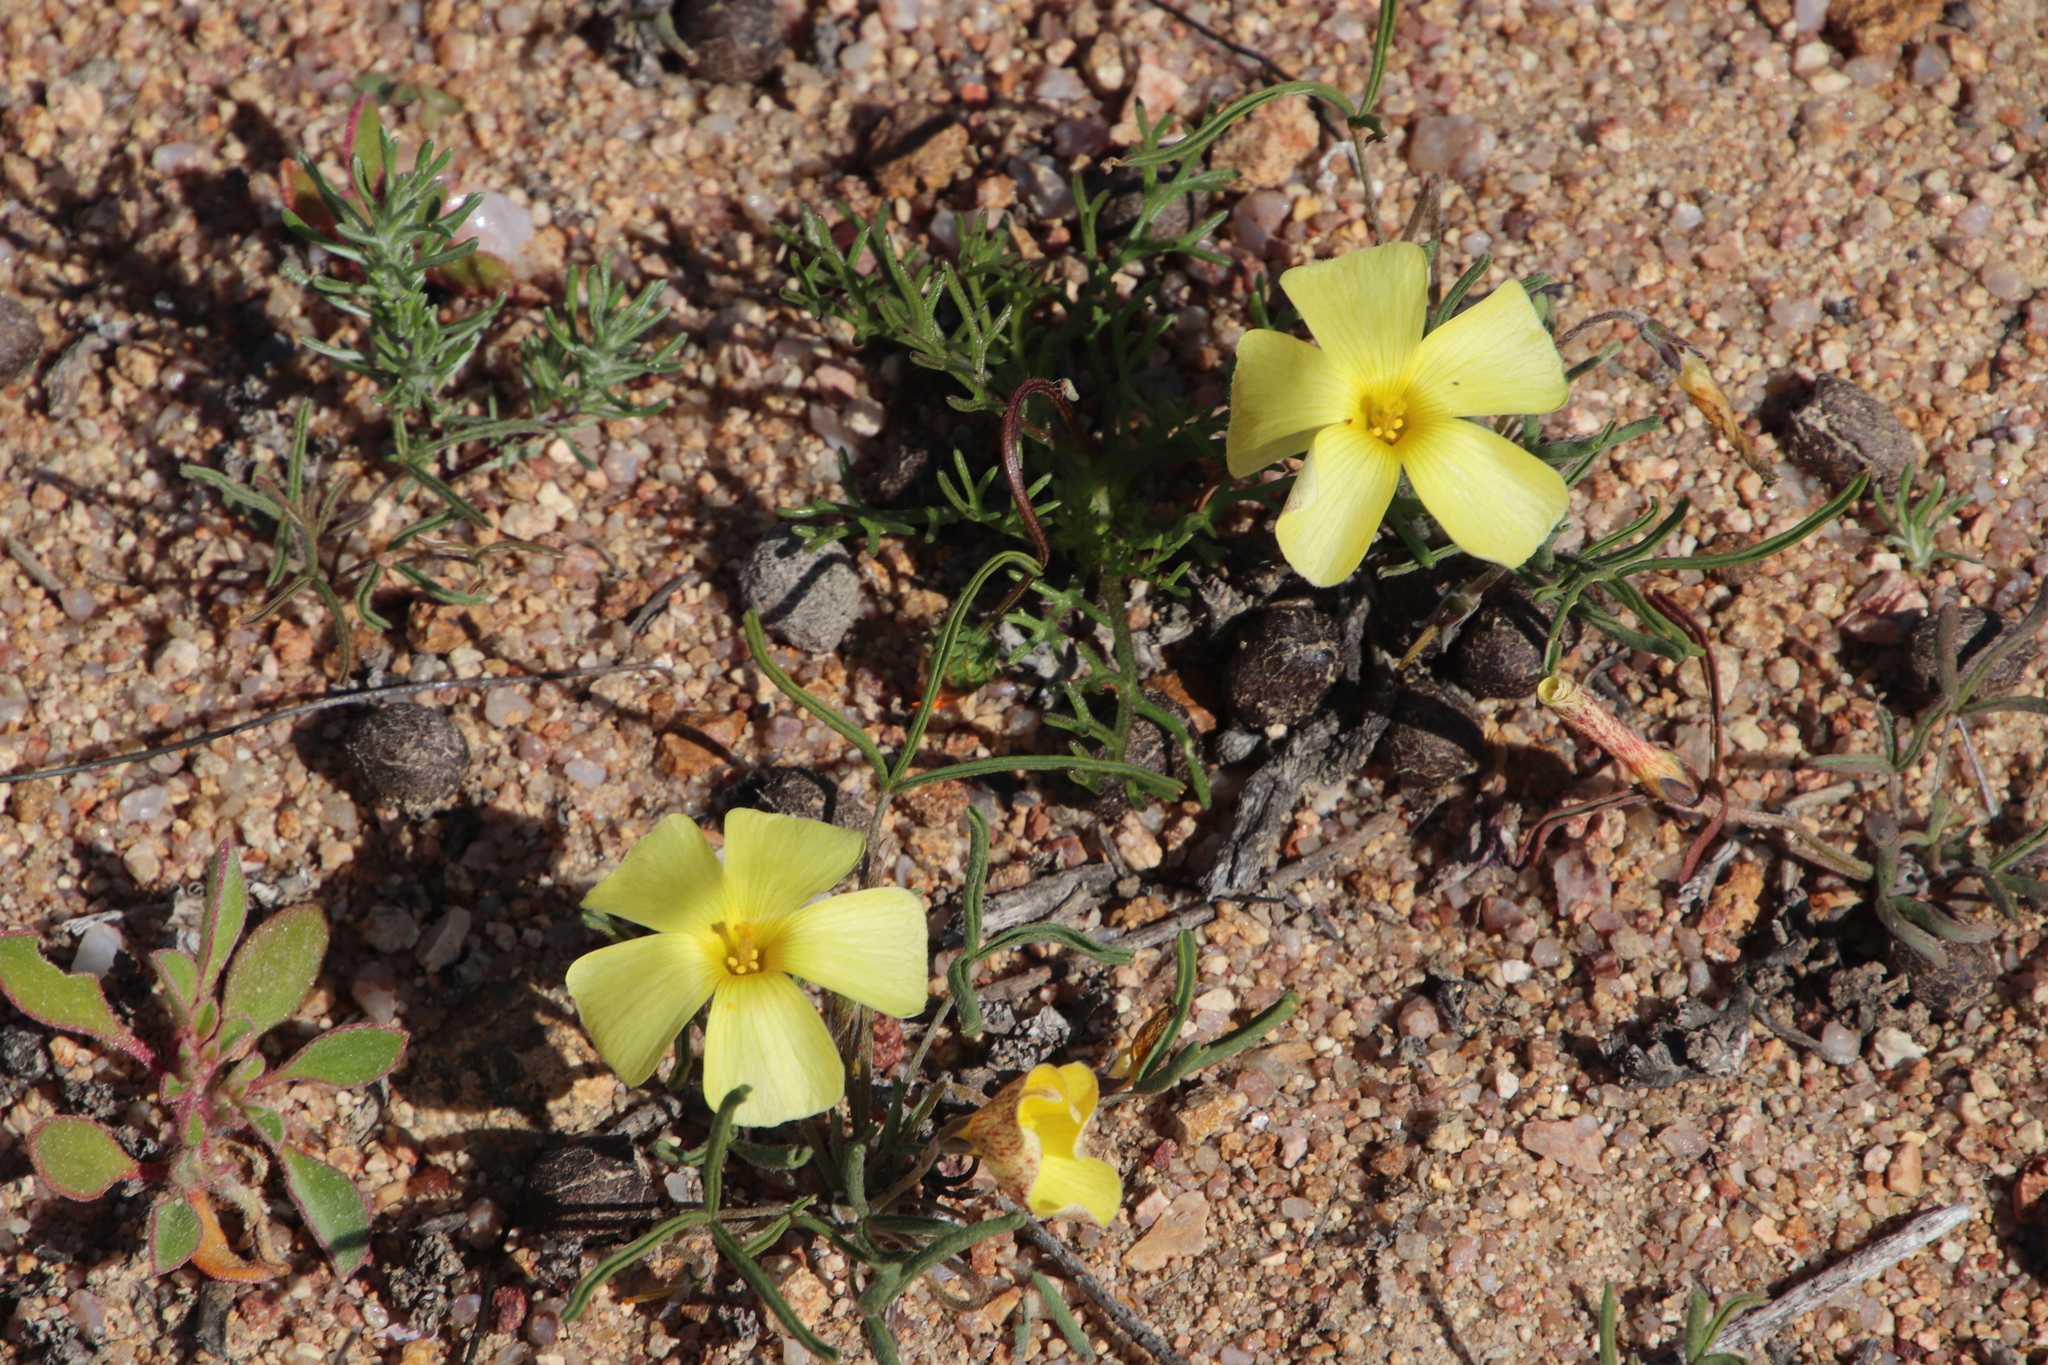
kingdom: Plantae
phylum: Tracheophyta
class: Magnoliopsida
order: Oxalidales
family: Oxalidaceae
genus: Oxalis
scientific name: Oxalis obtusa
